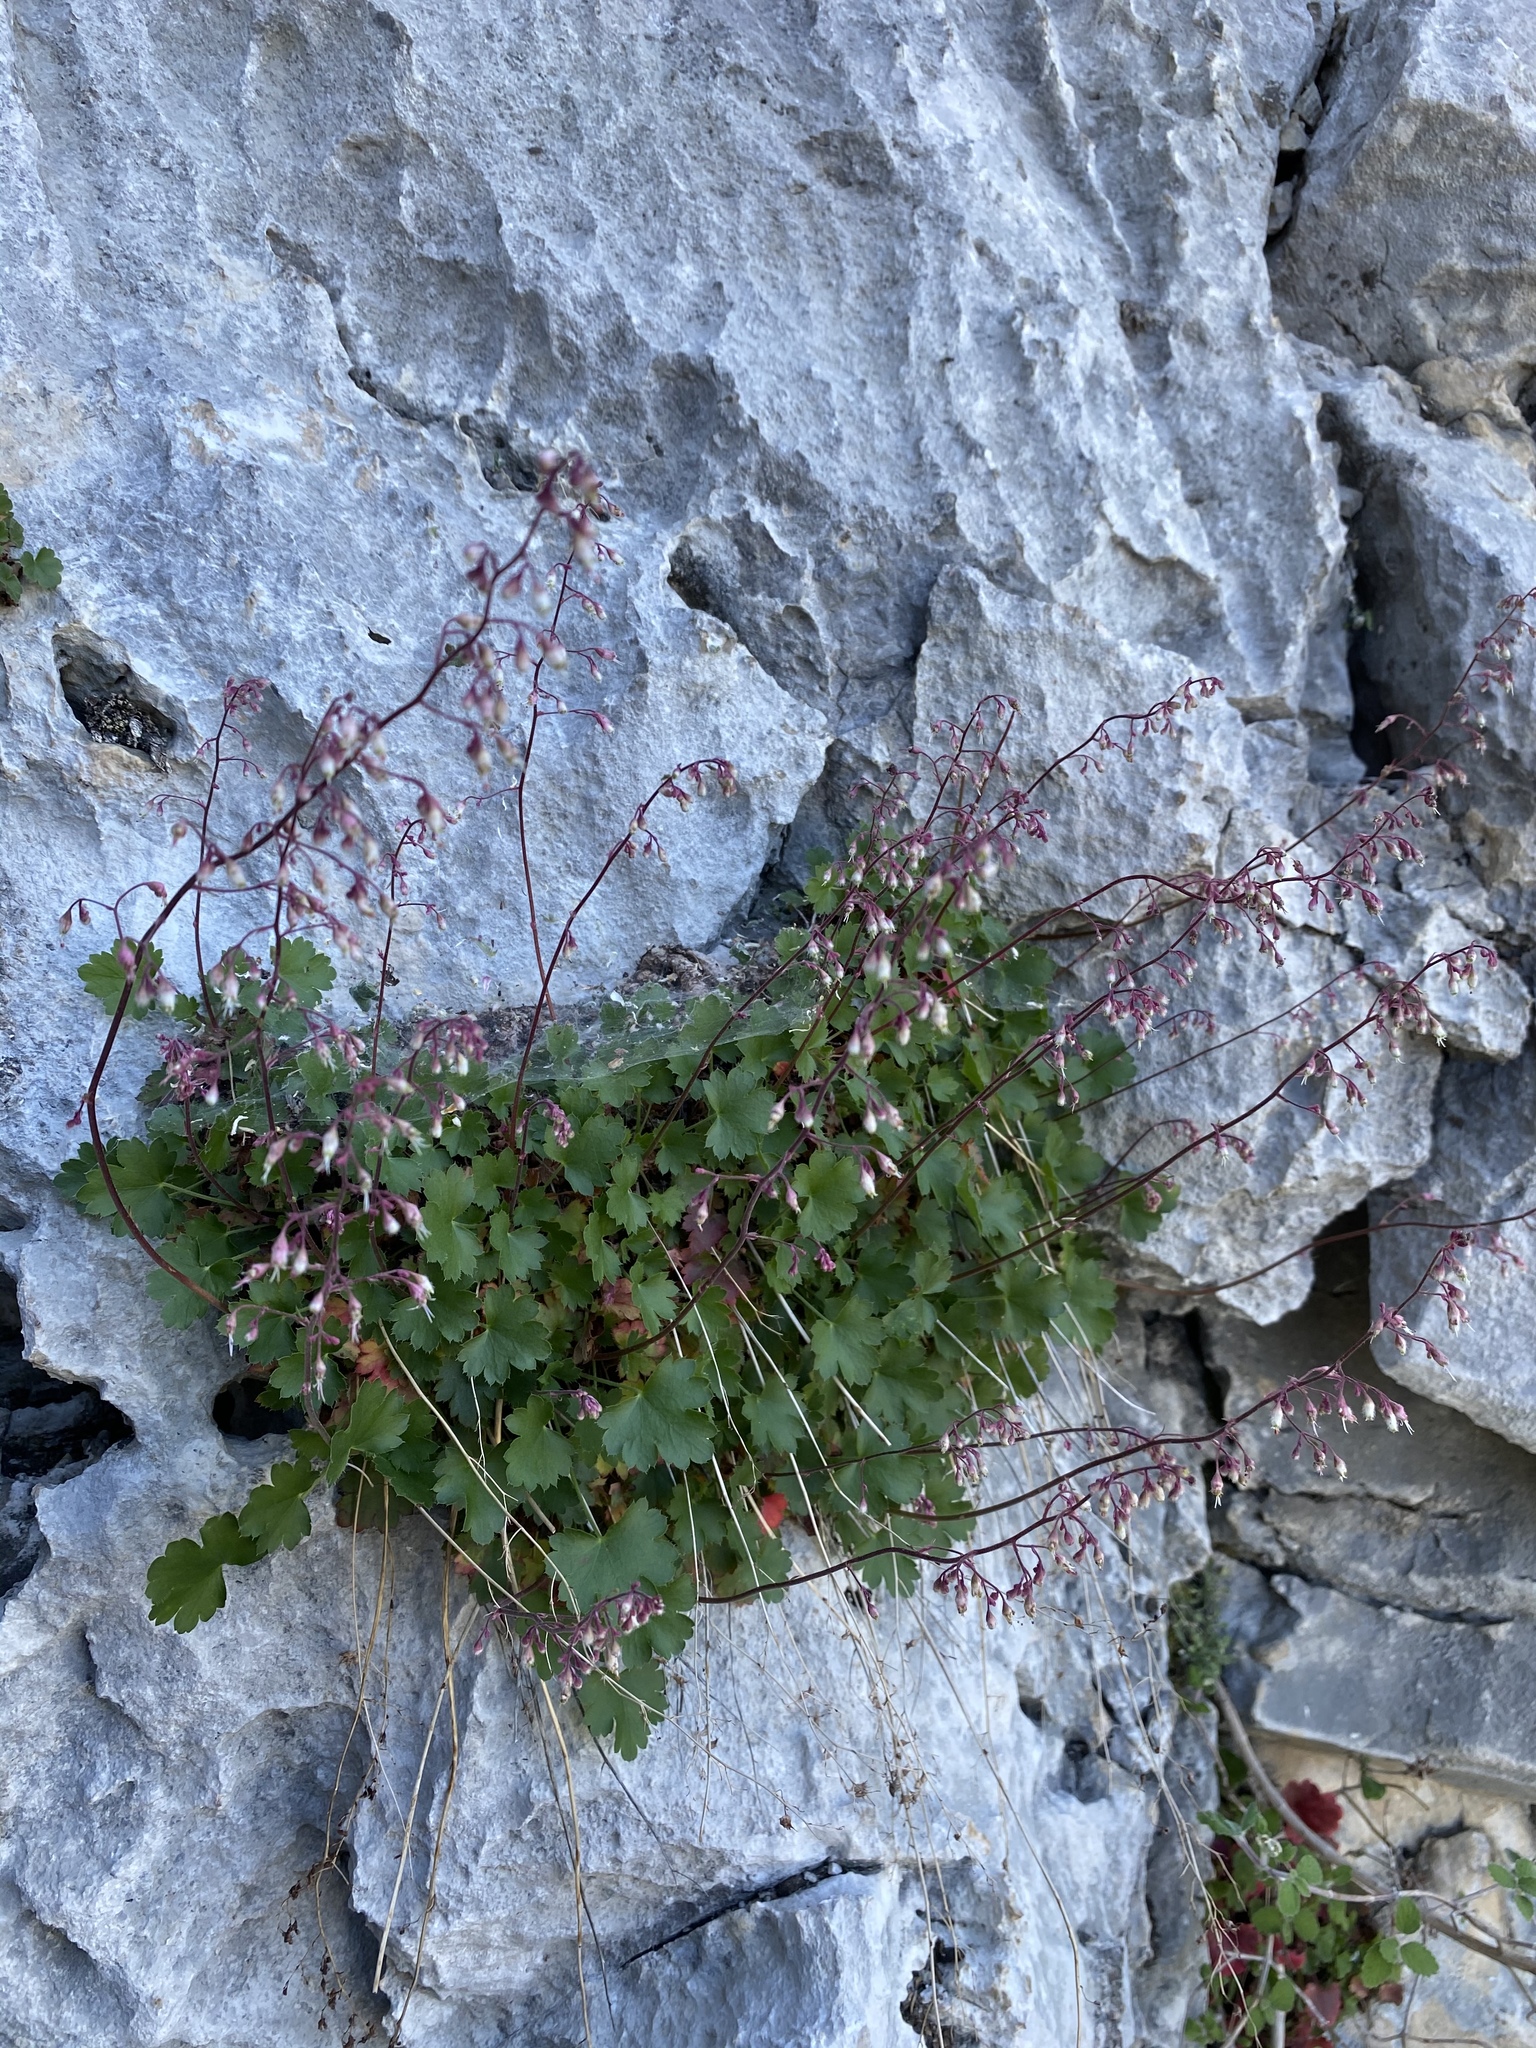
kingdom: Plantae
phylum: Tracheophyta
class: Magnoliopsida
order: Saxifragales
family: Saxifragaceae
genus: Heuchera
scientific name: Heuchera rubescens
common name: Jack-o'the-rocks
